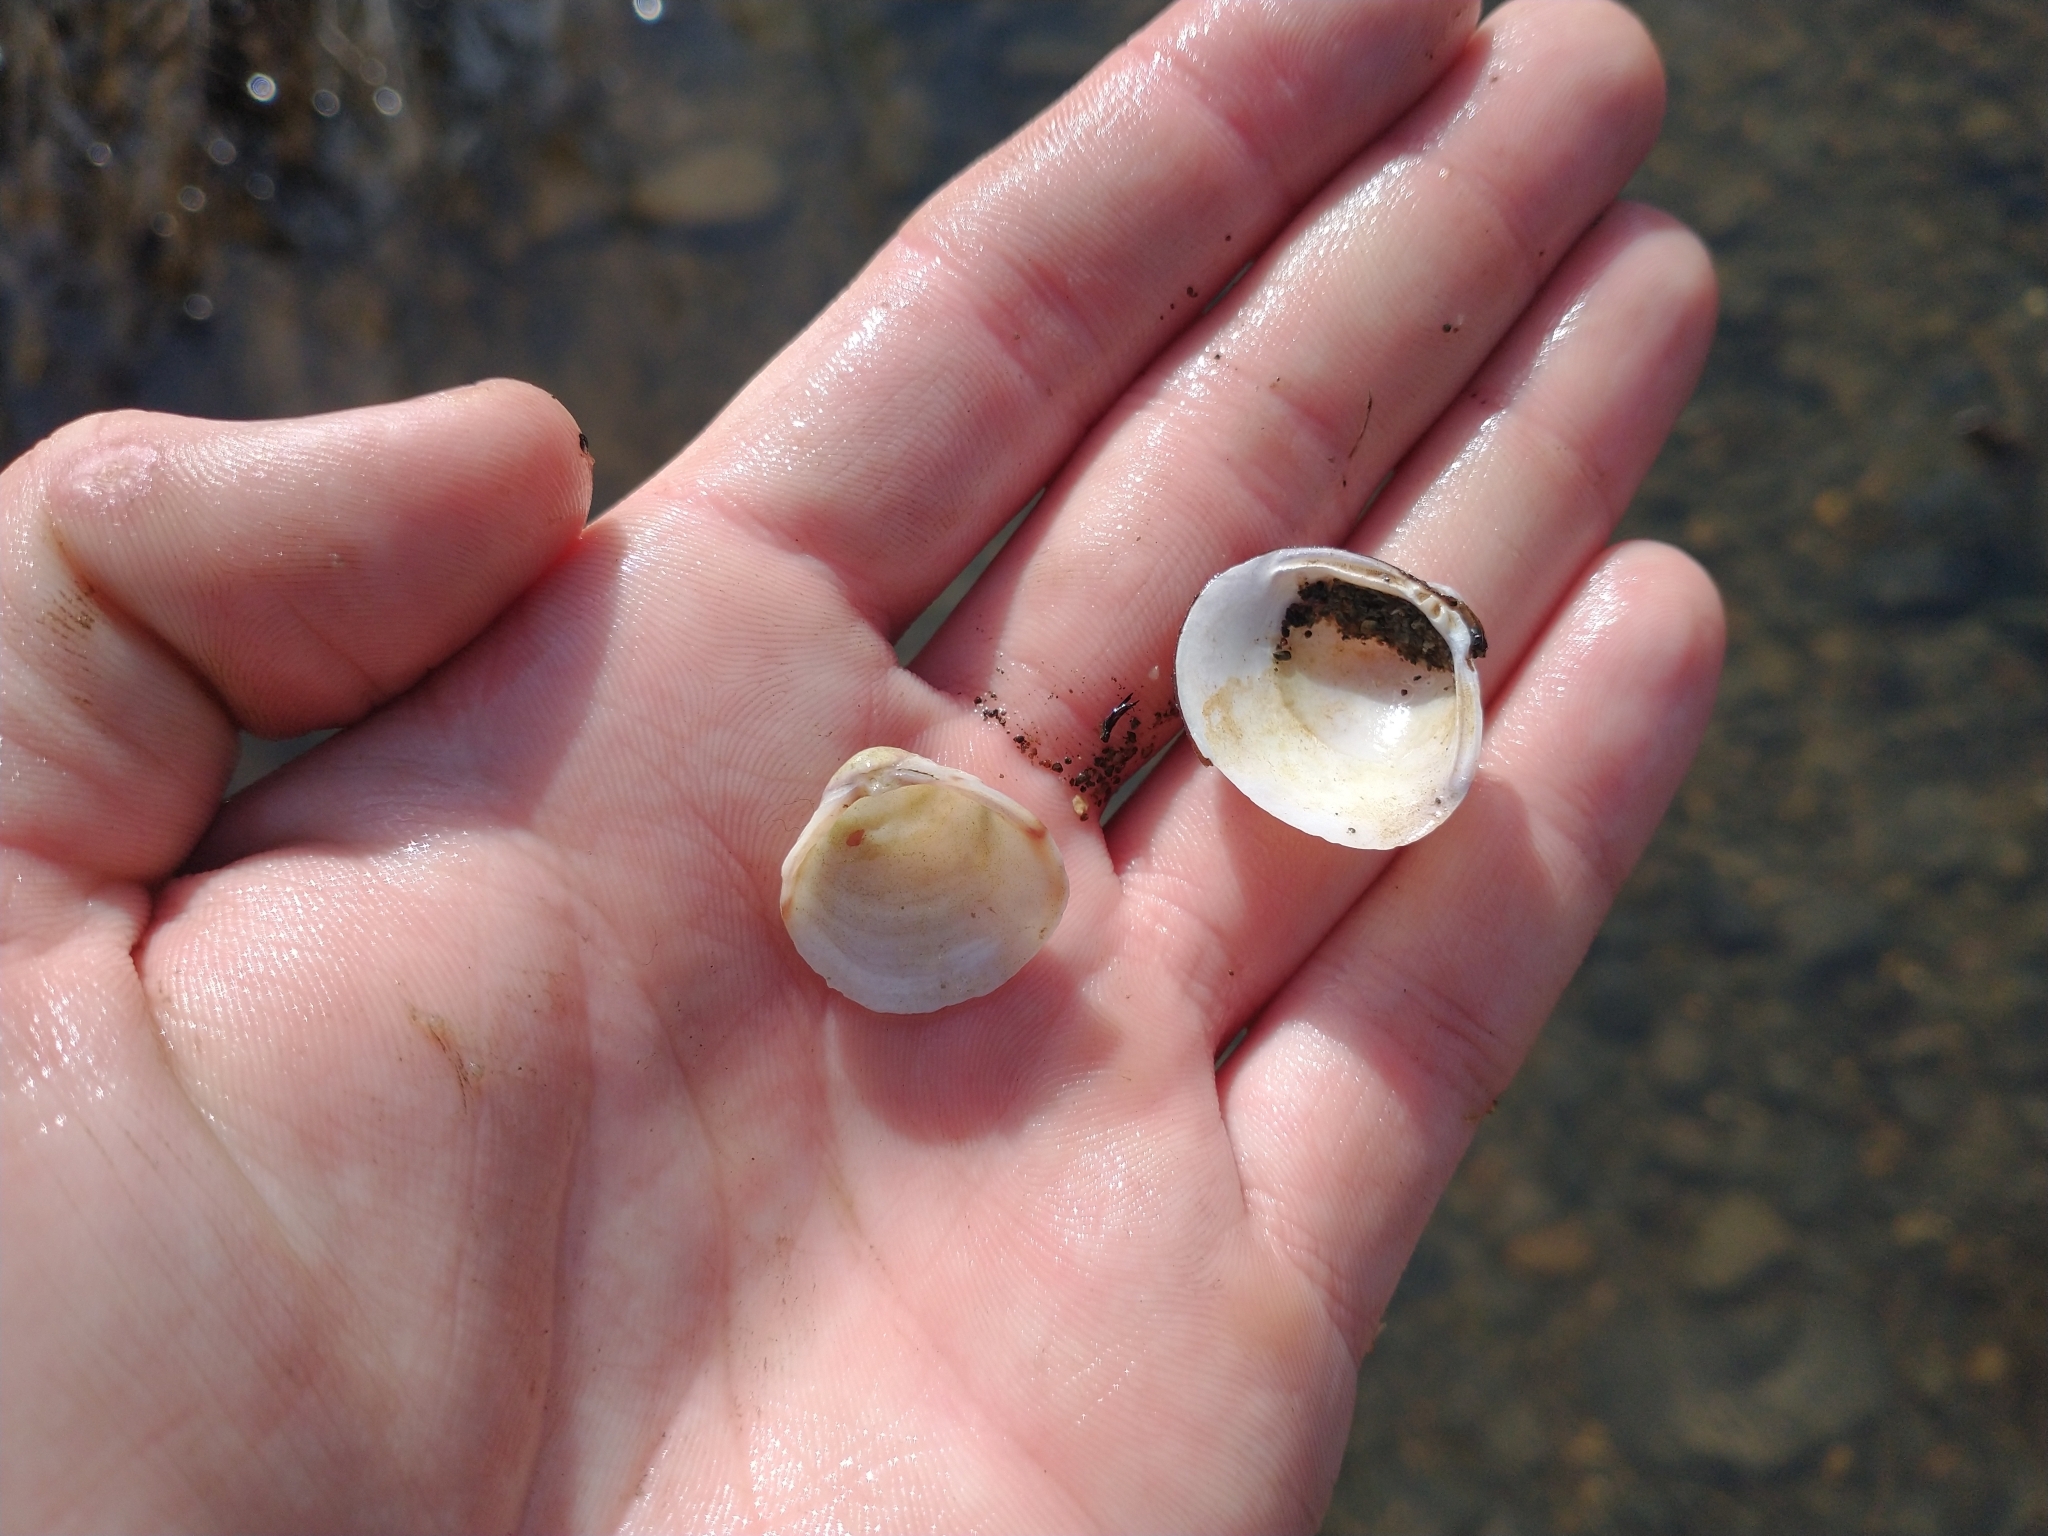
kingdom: Animalia
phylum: Mollusca
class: Bivalvia
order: Venerida
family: Cyrenidae
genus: Corbicula
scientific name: Corbicula fluminea
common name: Asian clam
